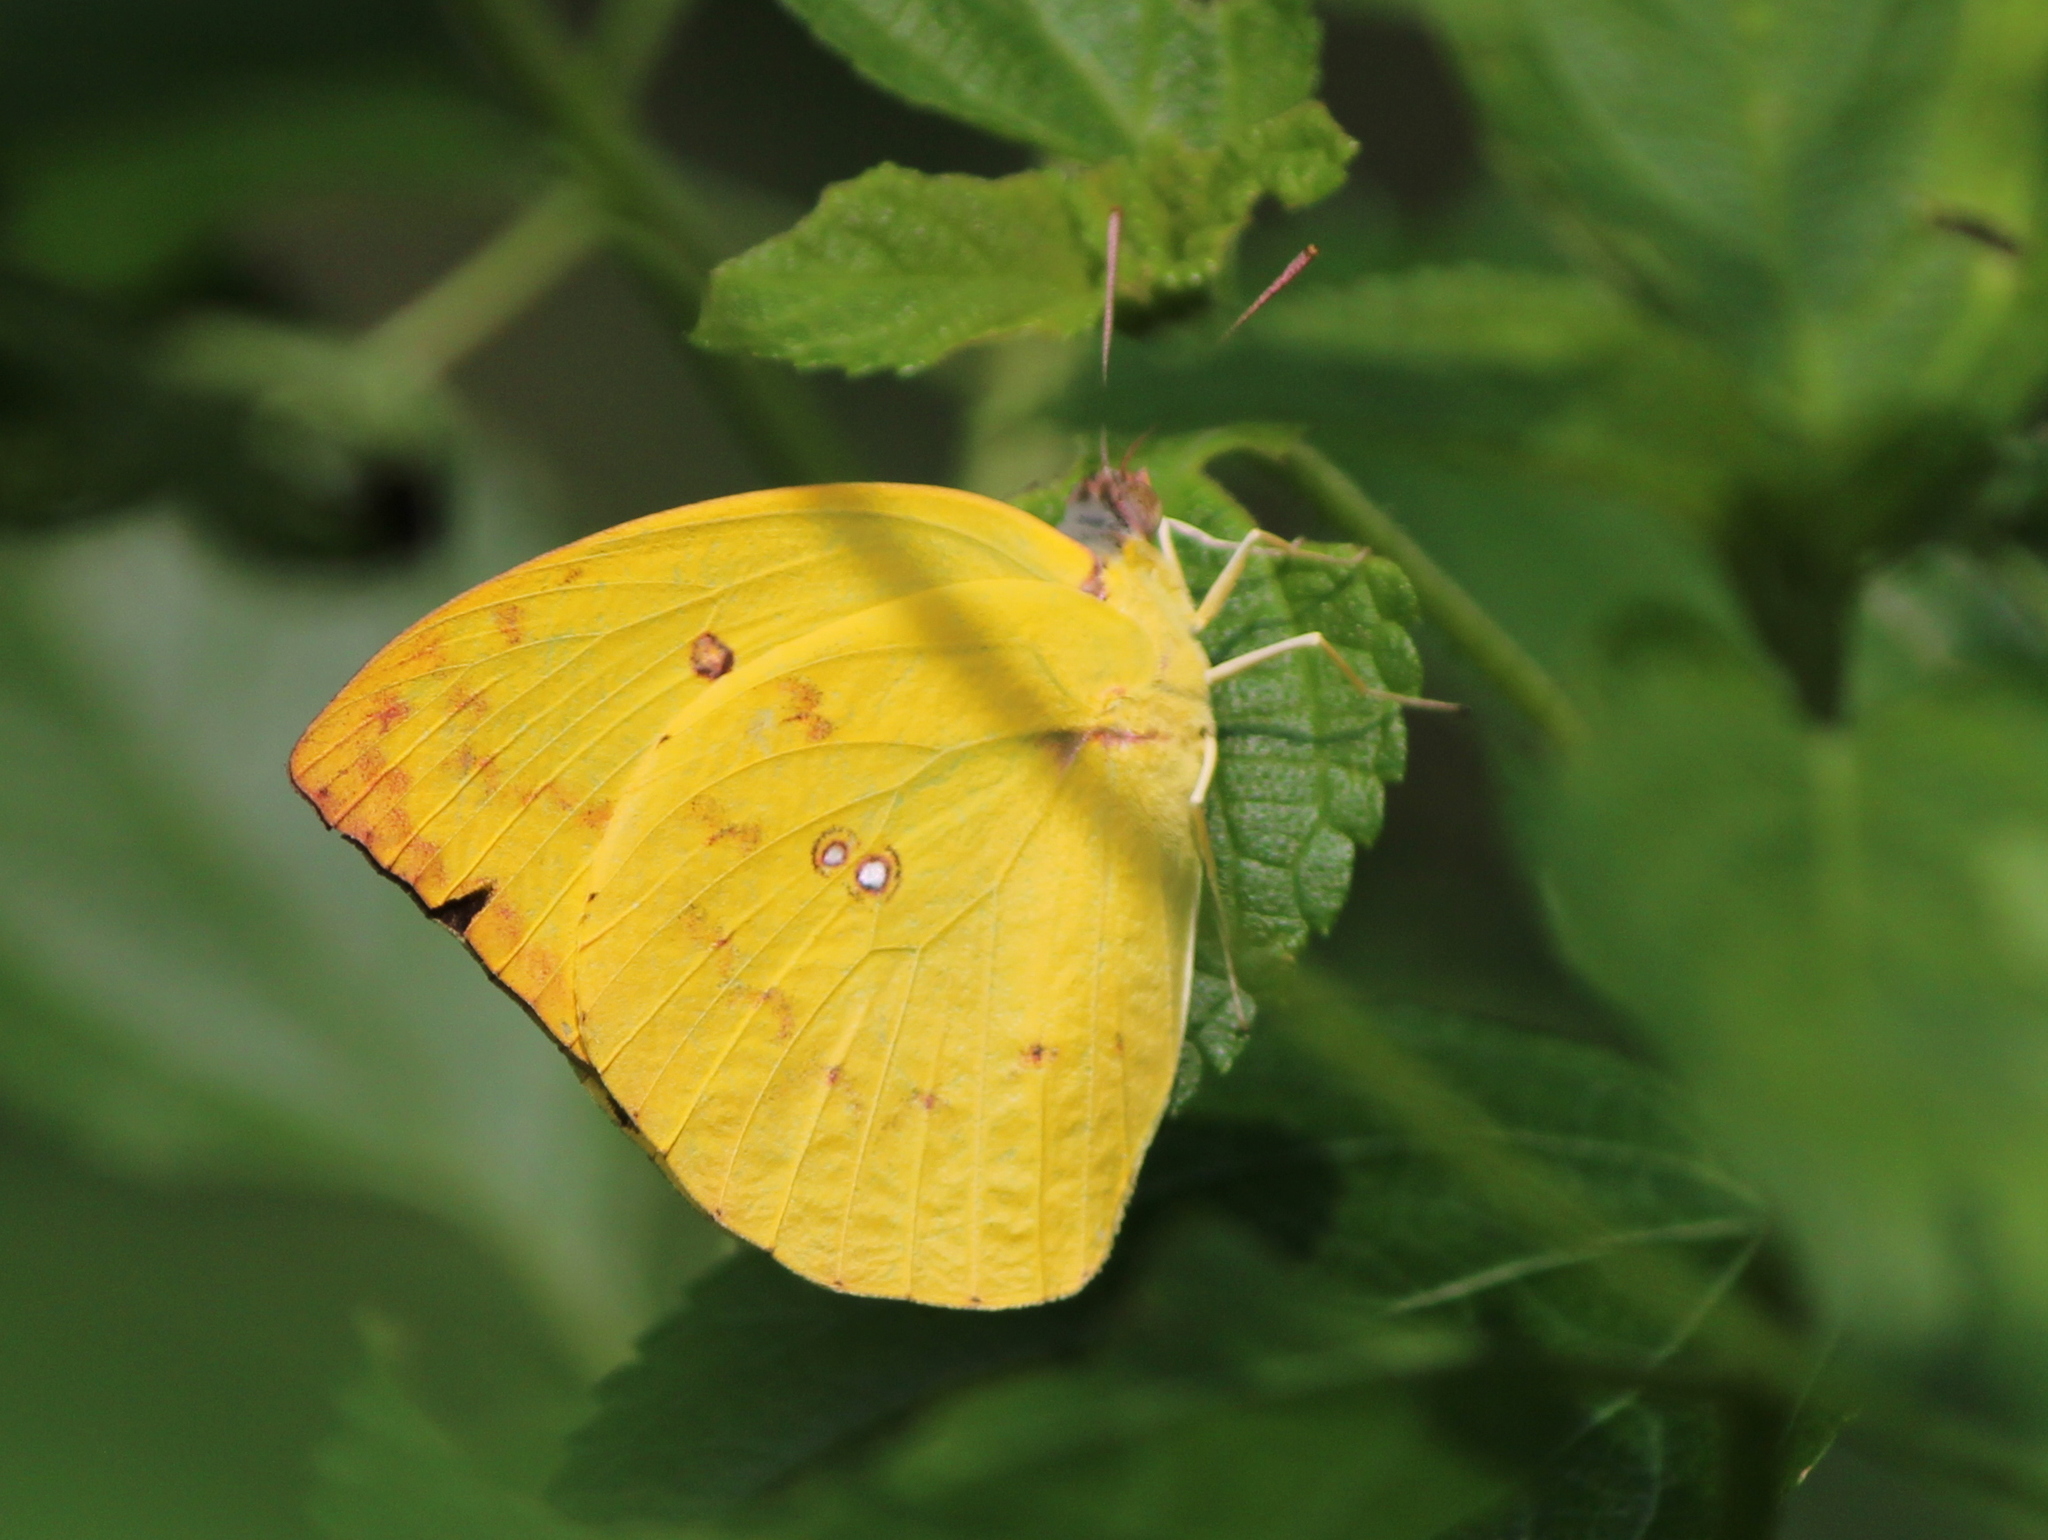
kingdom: Animalia
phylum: Arthropoda
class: Insecta
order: Lepidoptera
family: Pieridae
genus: Catopsilia
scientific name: Catopsilia pomona
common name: Common emigrant
